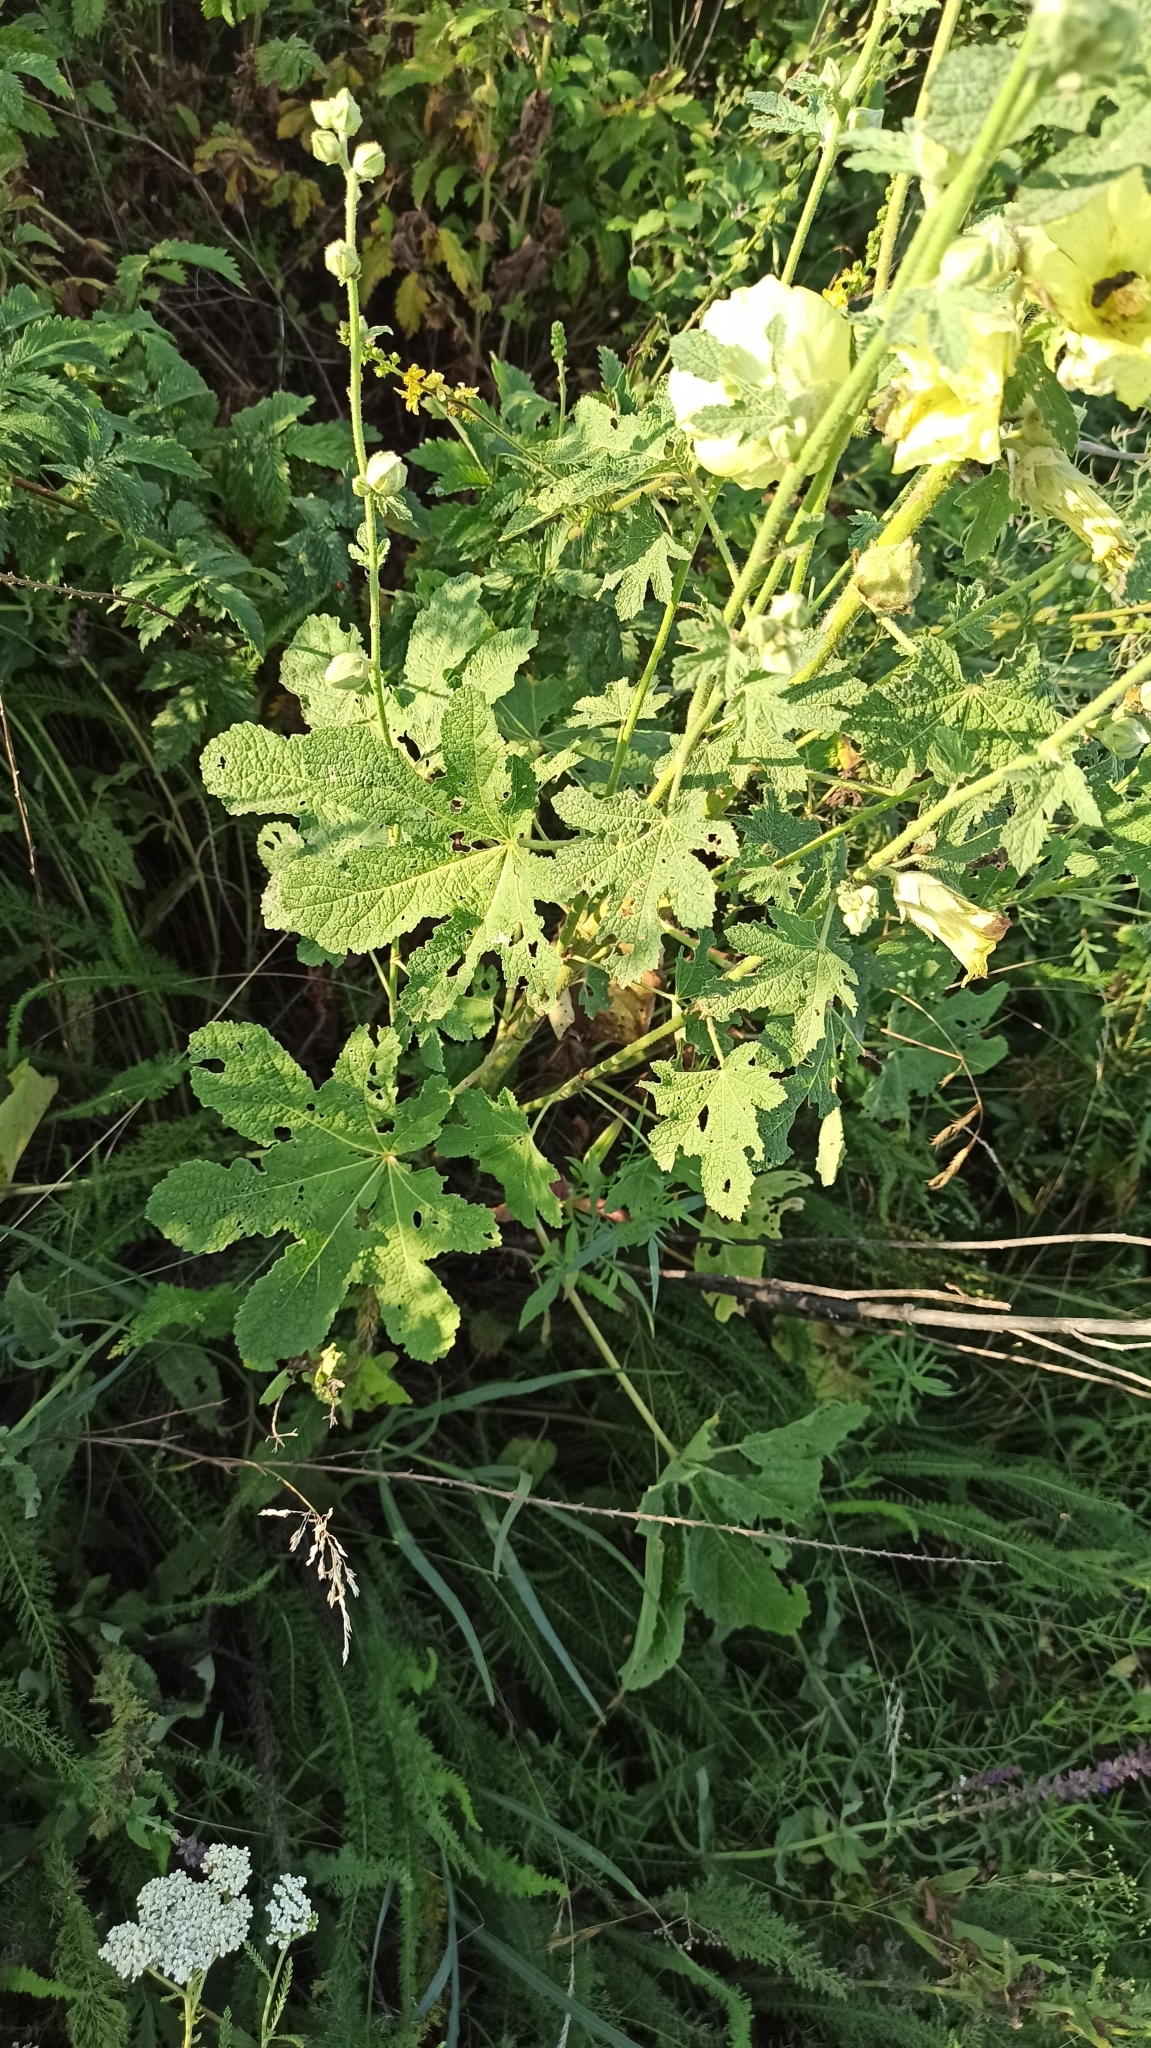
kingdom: Plantae
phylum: Tracheophyta
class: Magnoliopsida
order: Malvales
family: Malvaceae
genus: Alcea
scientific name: Alcea rugosa
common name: Russian hollyhock
